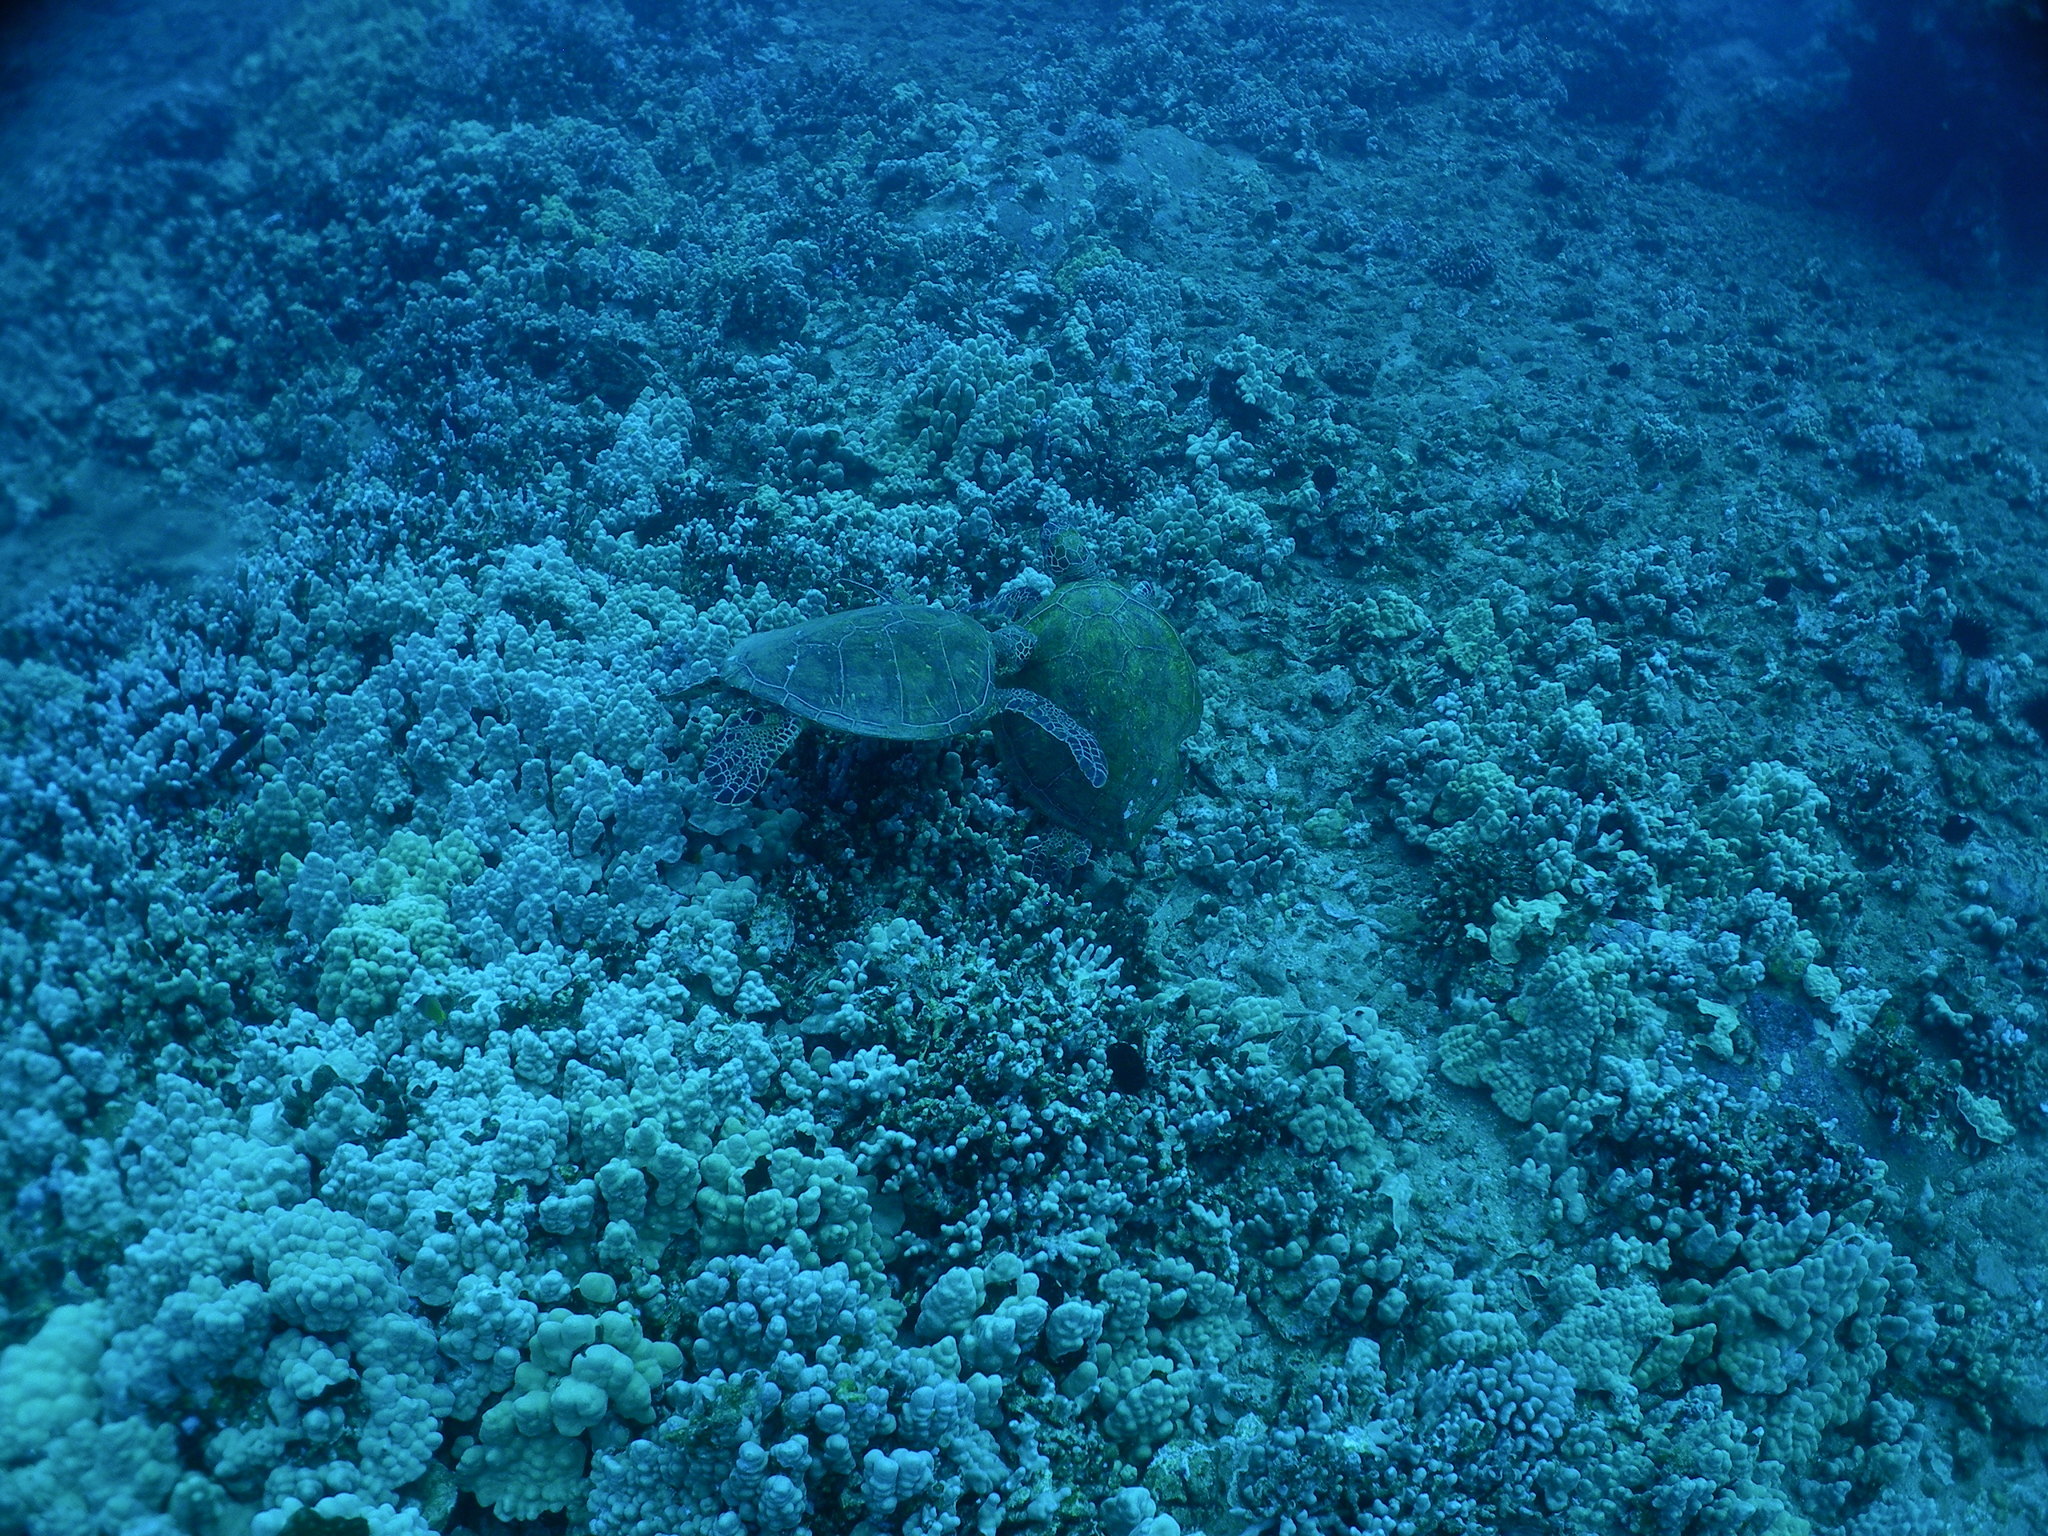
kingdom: Animalia
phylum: Chordata
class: Testudines
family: Cheloniidae
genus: Chelonia
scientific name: Chelonia mydas
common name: Green turtle
